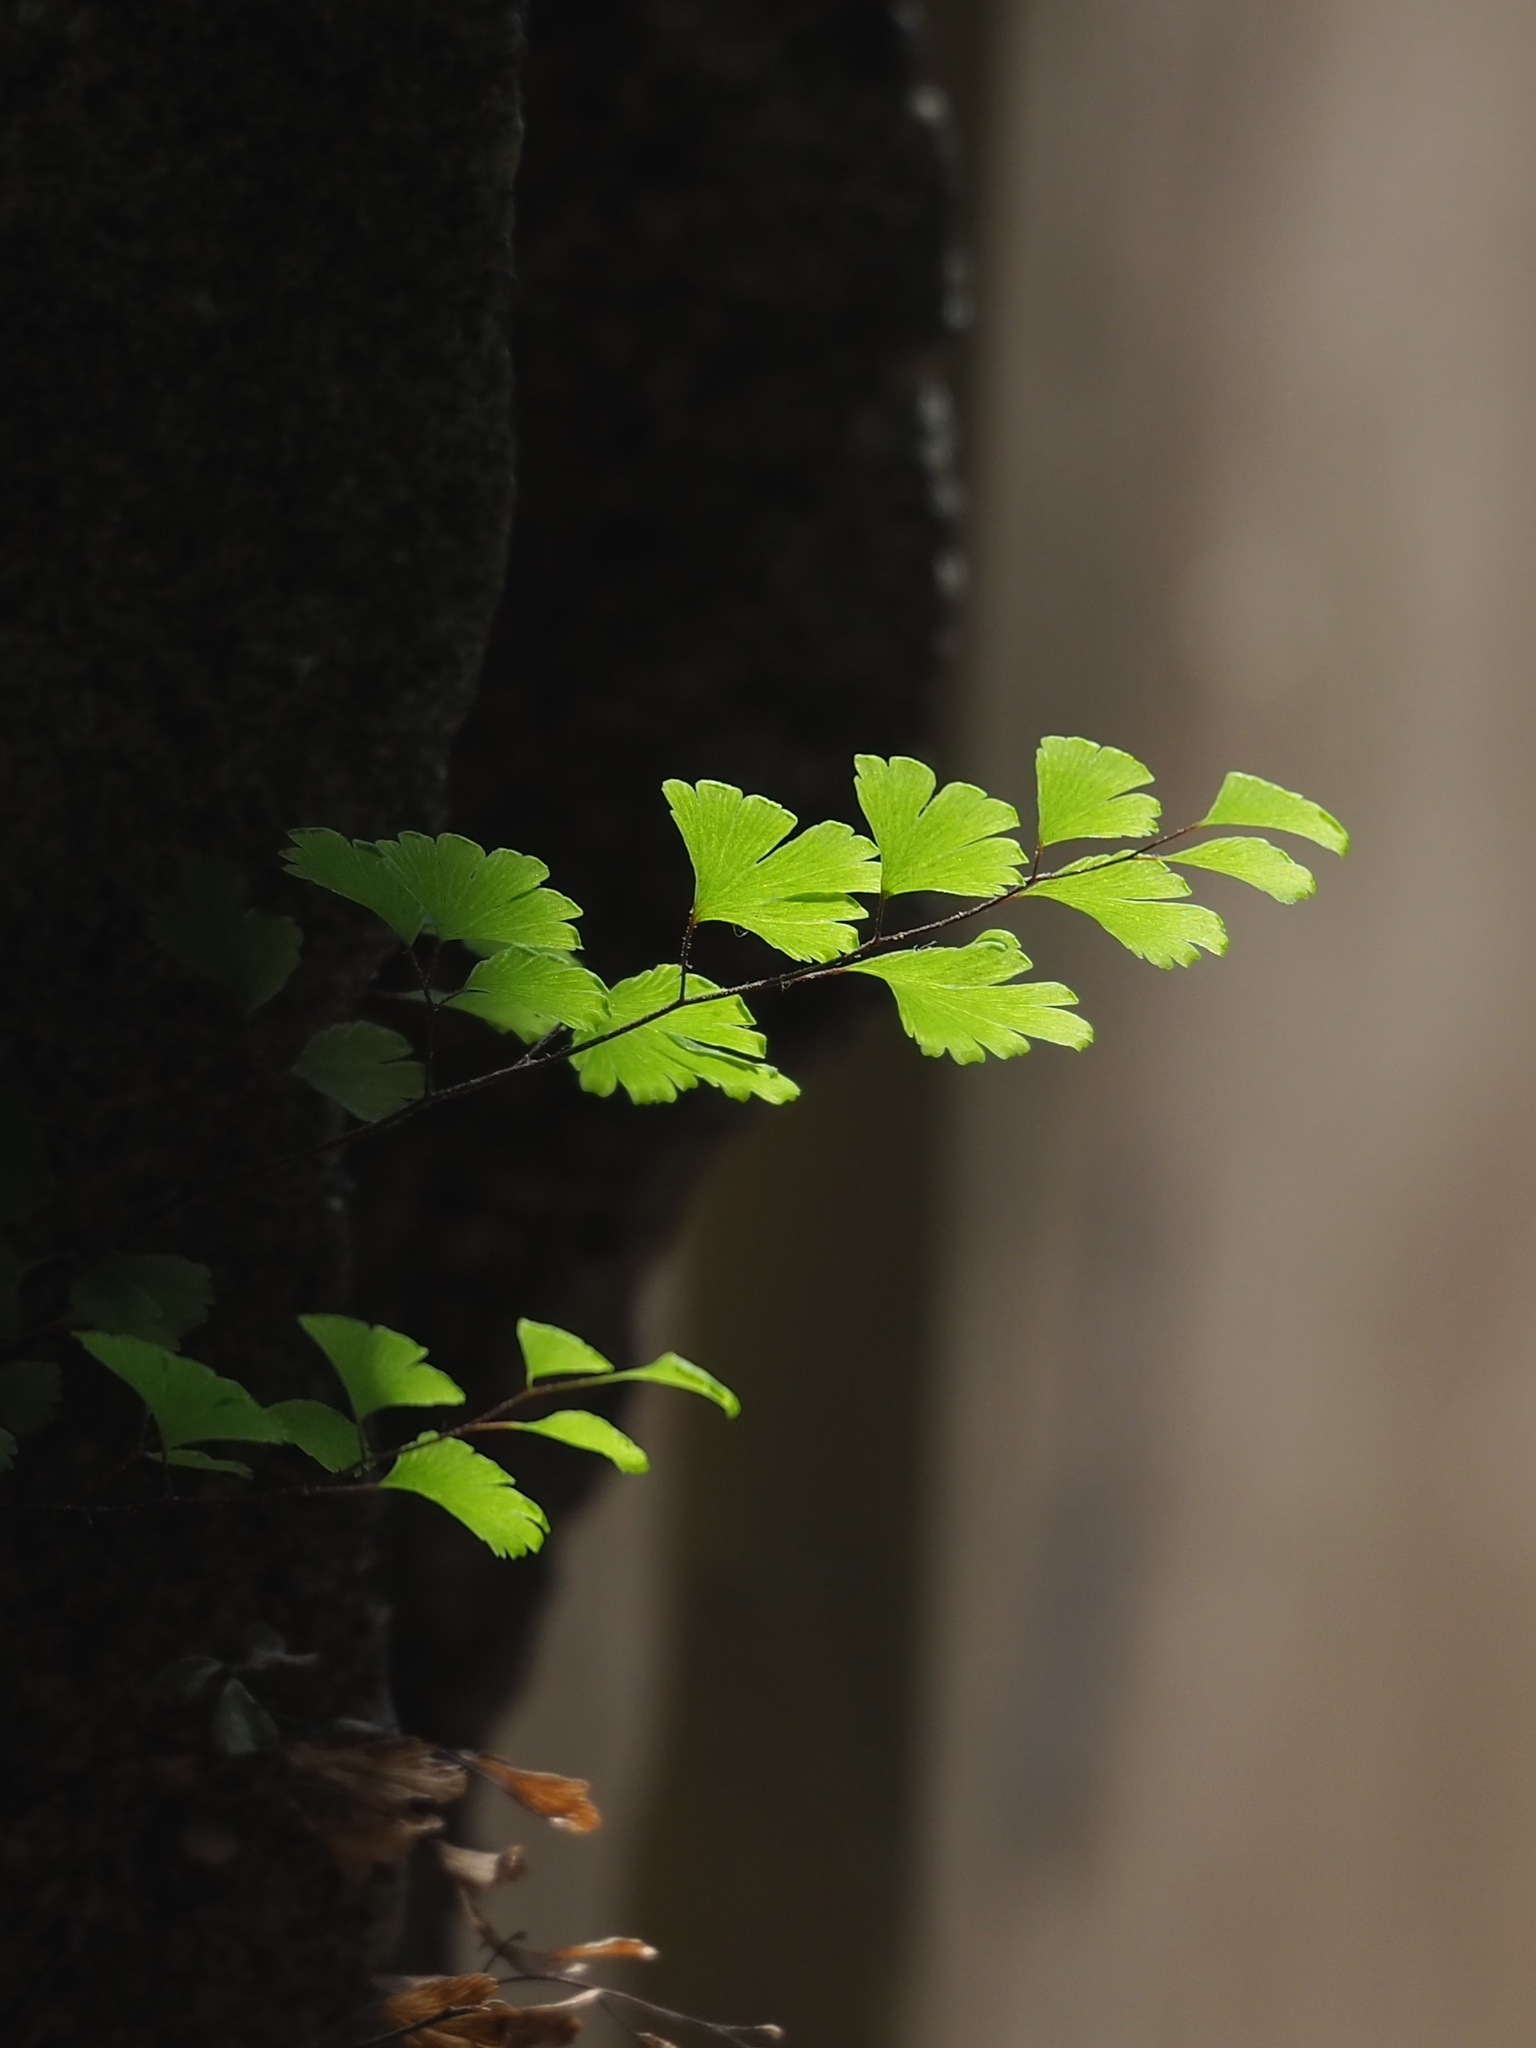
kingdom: Plantae
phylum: Tracheophyta
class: Polypodiopsida
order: Polypodiales
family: Pteridaceae
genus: Adiantum
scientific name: Adiantum capillus-veneris
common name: Maidenhair fern
